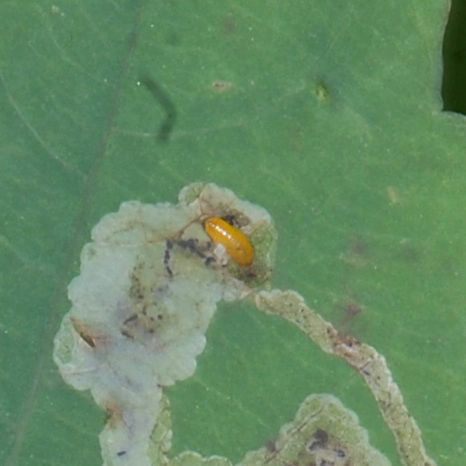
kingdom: Animalia
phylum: Arthropoda
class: Insecta
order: Diptera
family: Agromyzidae
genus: Phytoliriomyza
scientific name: Phytoliriomyza melampyga
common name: Jewelweed leaf-miner fly
